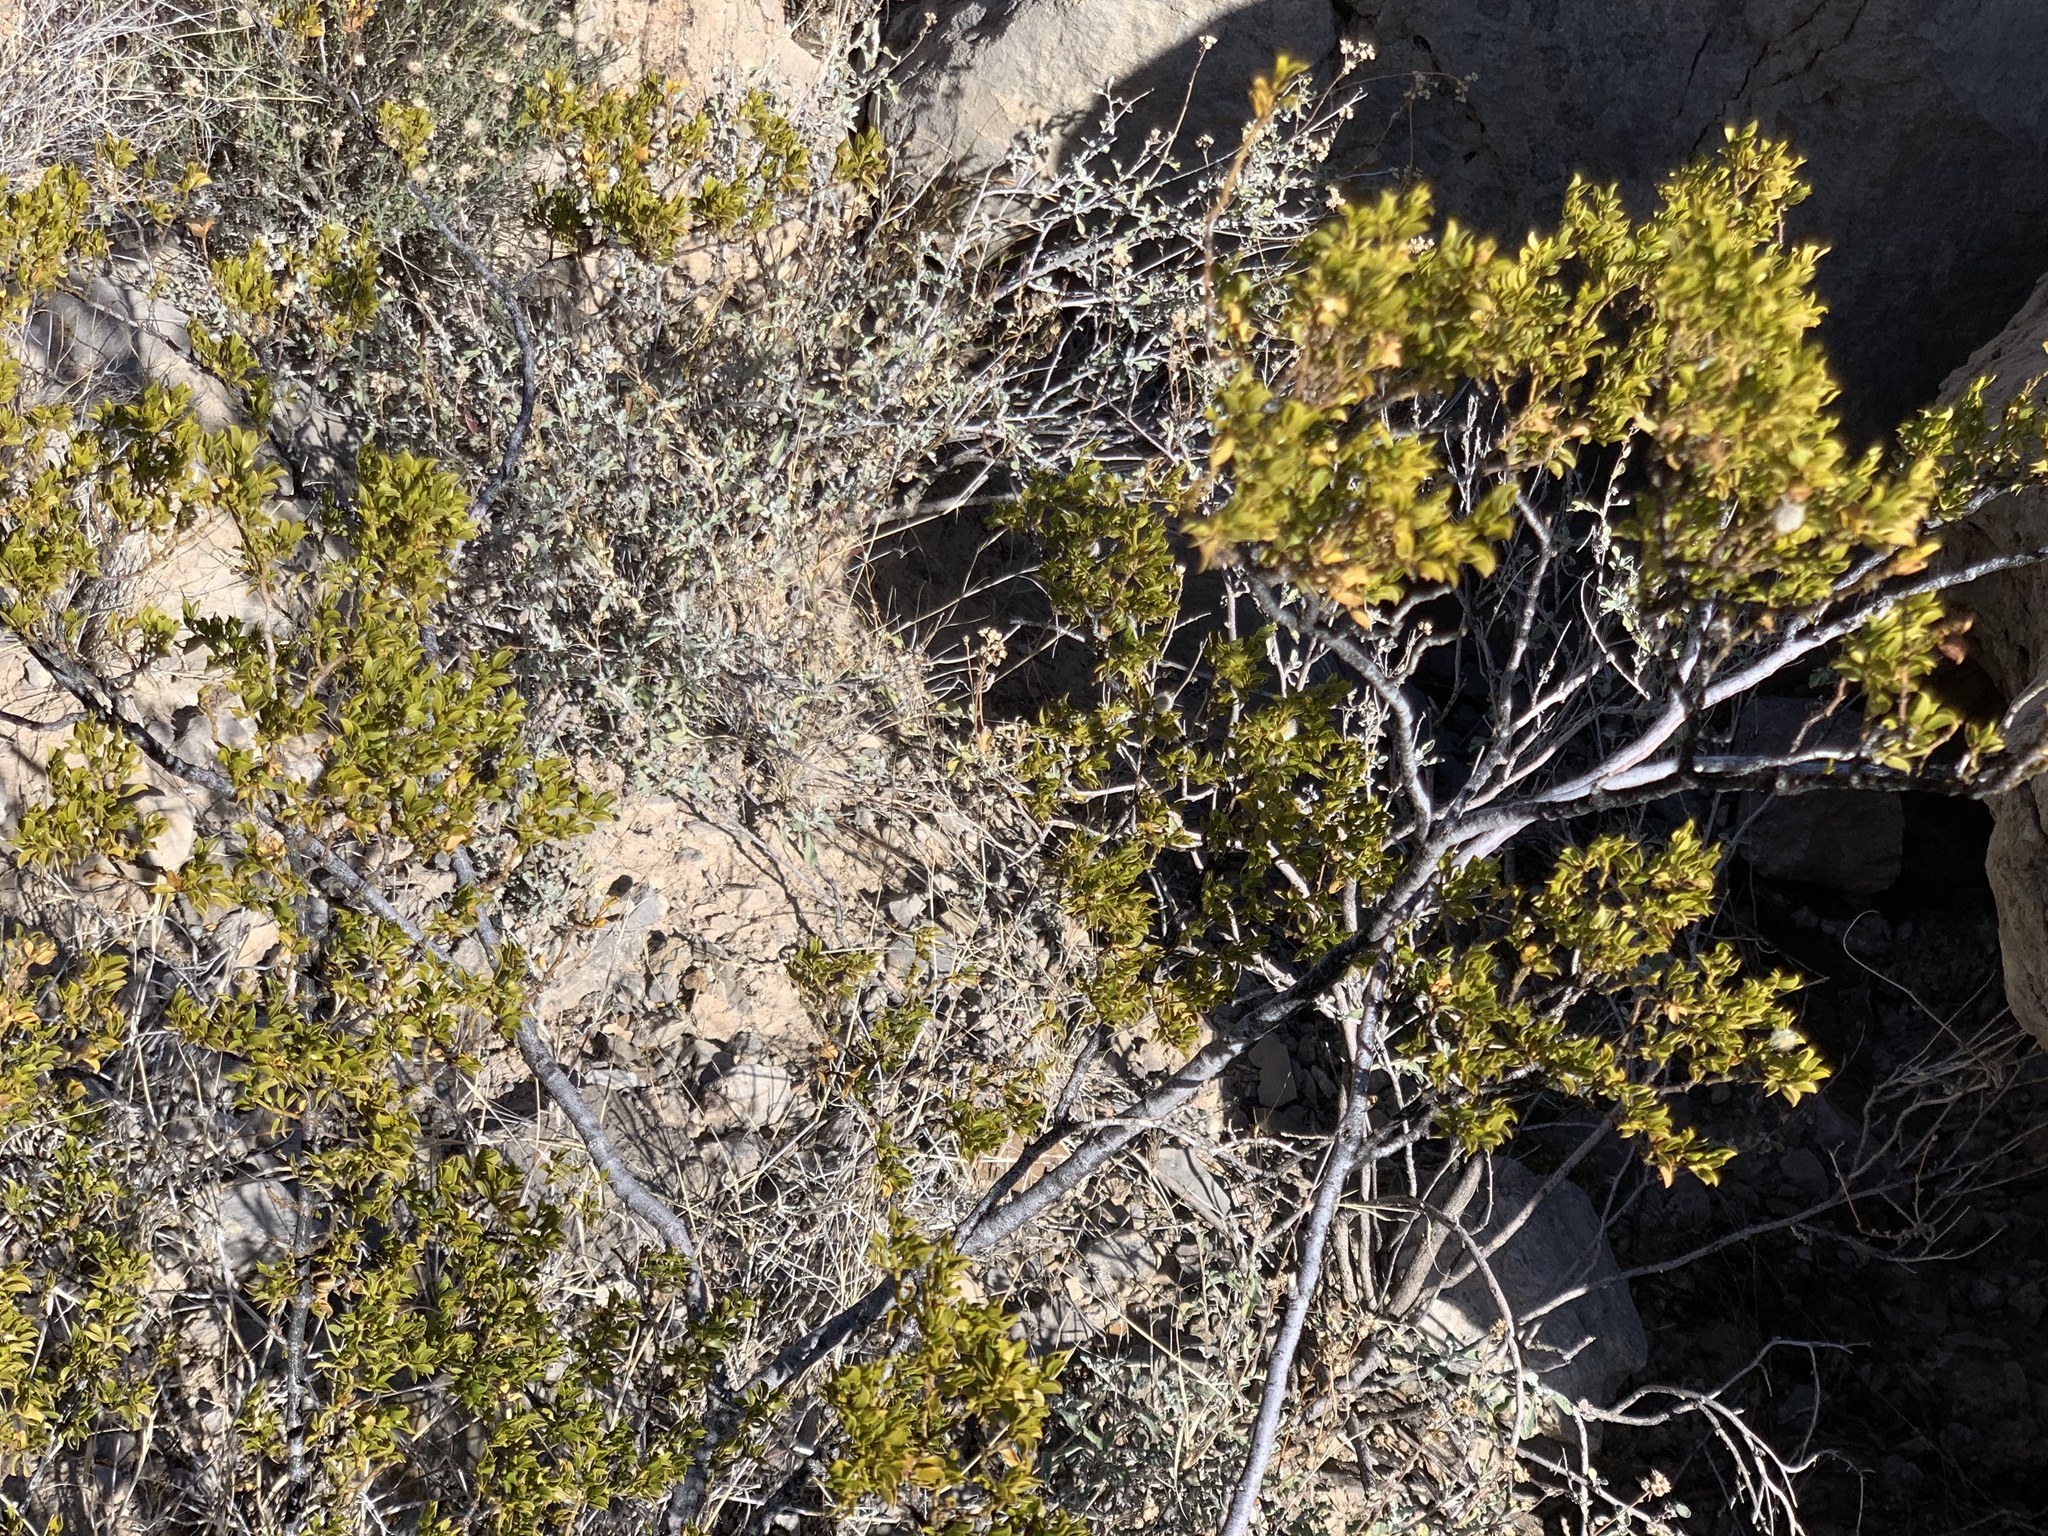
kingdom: Plantae
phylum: Tracheophyta
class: Magnoliopsida
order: Zygophyllales
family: Zygophyllaceae
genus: Larrea
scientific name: Larrea tridentata
